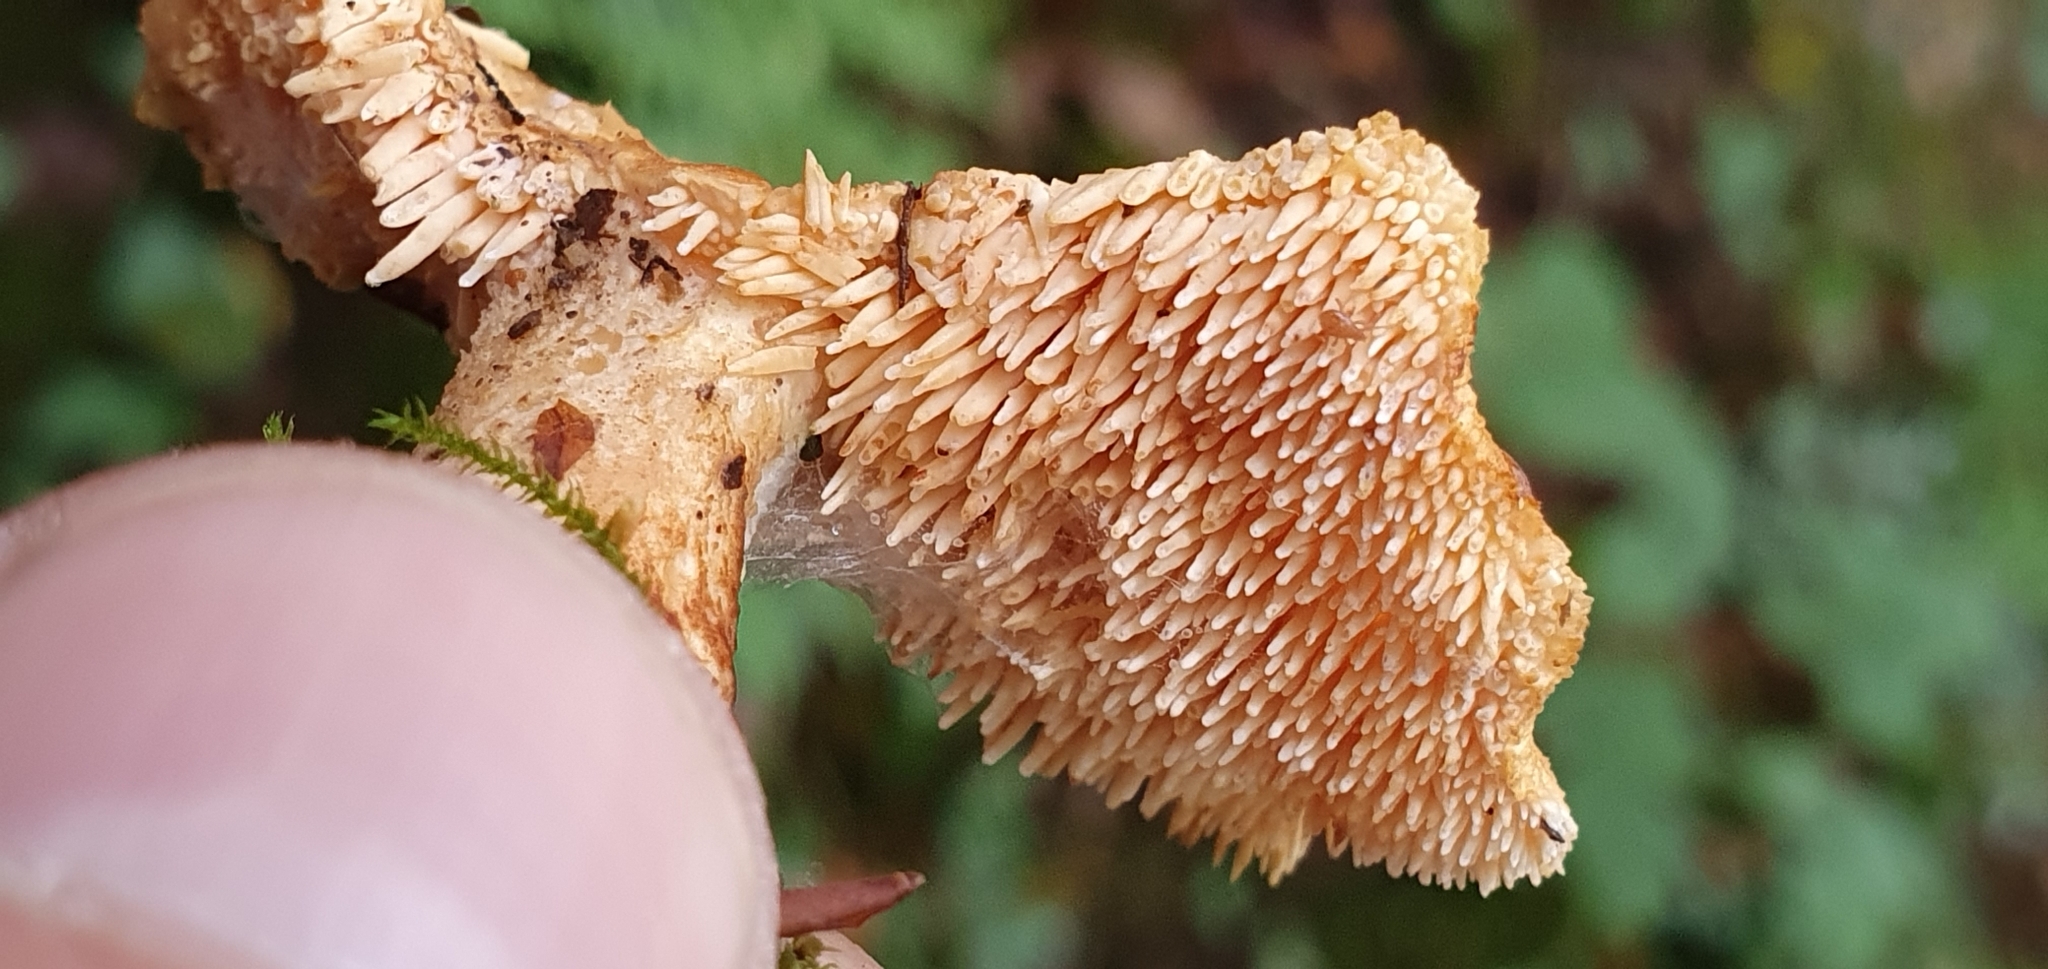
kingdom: Fungi
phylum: Basidiomycota
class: Agaricomycetes
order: Cantharellales
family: Hydnaceae
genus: Hydnum
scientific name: Hydnum rufescens
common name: Terracotta hedgehog
